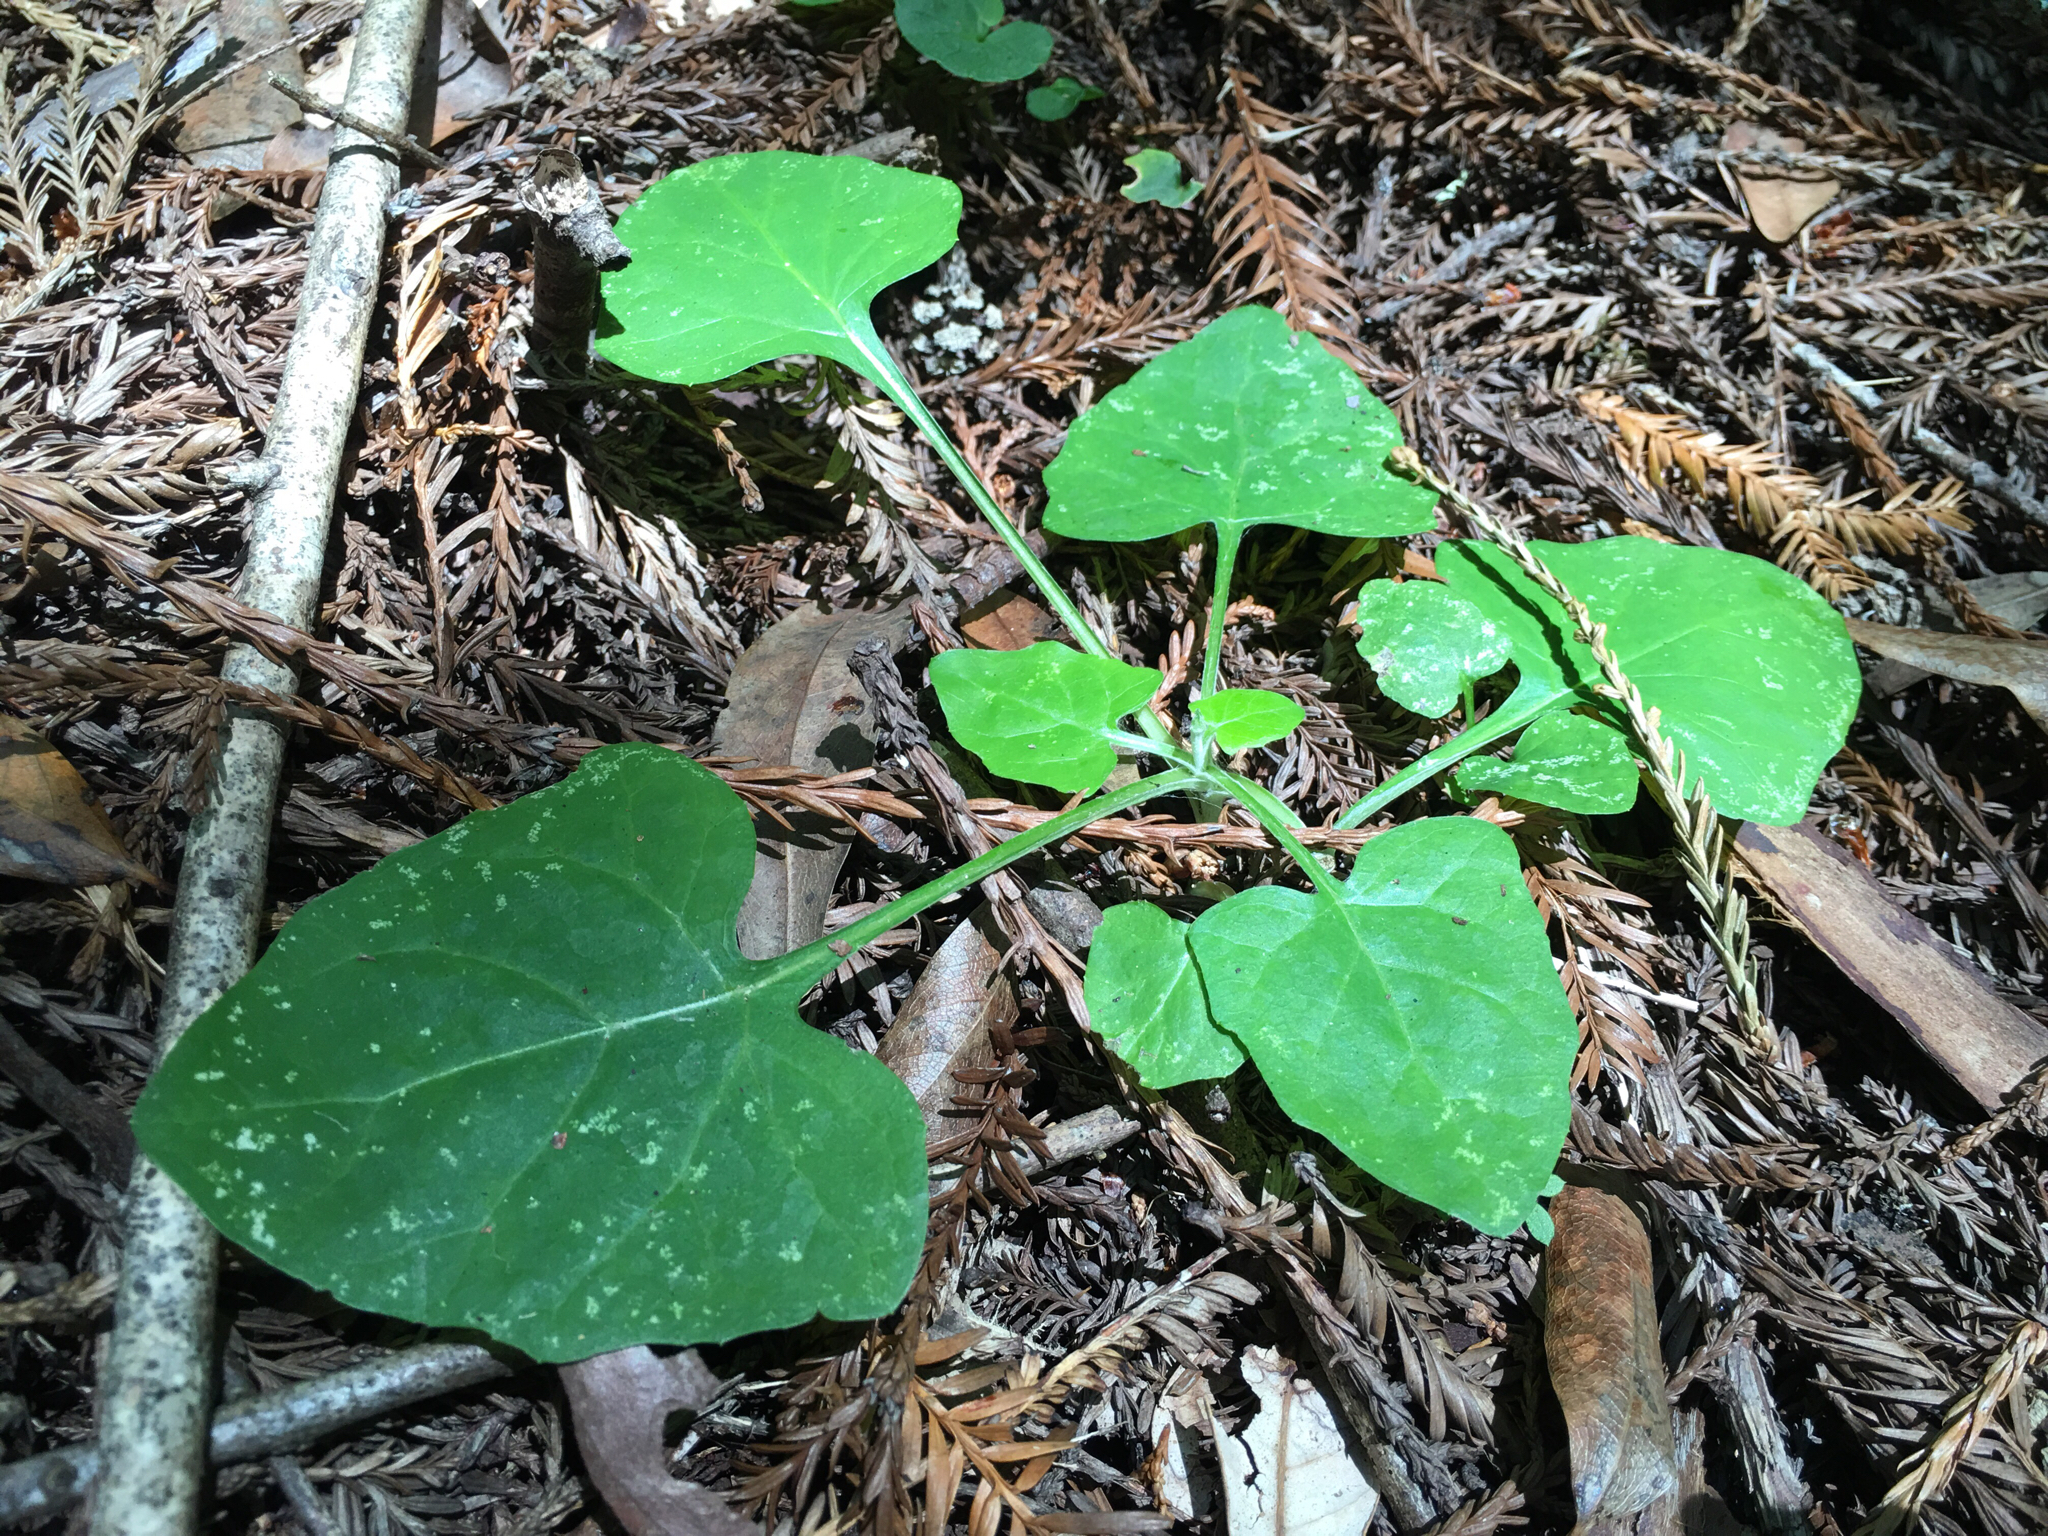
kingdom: Plantae
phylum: Tracheophyta
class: Magnoliopsida
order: Asterales
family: Asteraceae
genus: Adenocaulon
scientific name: Adenocaulon bicolor
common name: Trailplant
